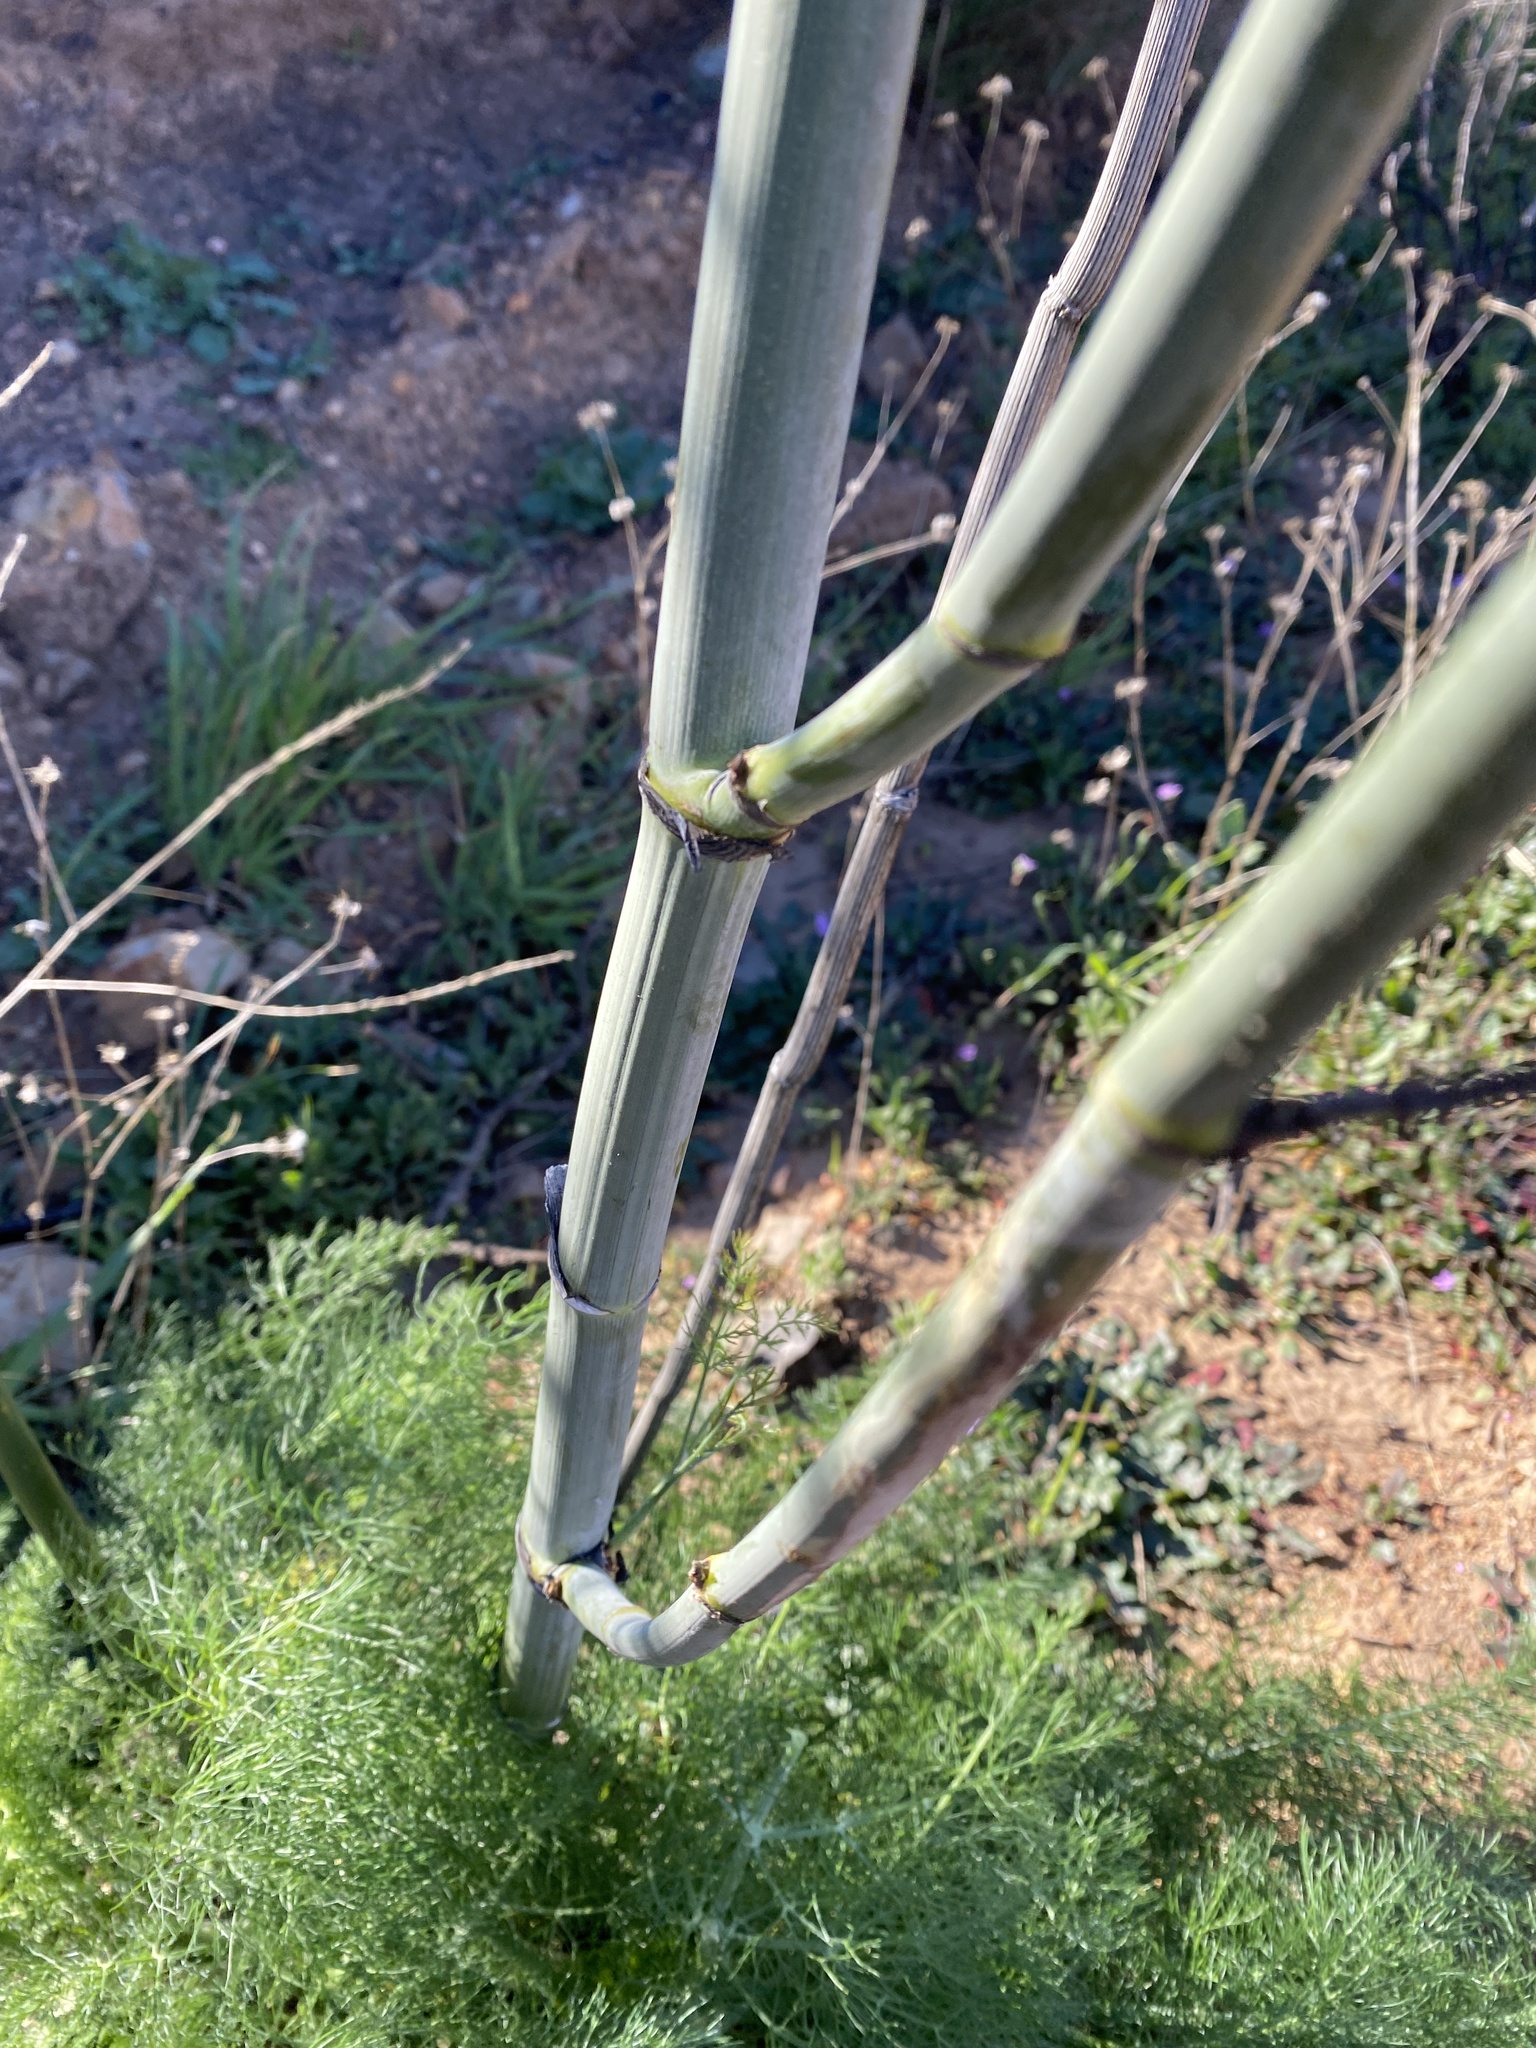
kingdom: Plantae
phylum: Tracheophyta
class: Magnoliopsida
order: Apiales
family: Apiaceae
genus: Foeniculum
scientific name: Foeniculum vulgare
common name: Fennel
